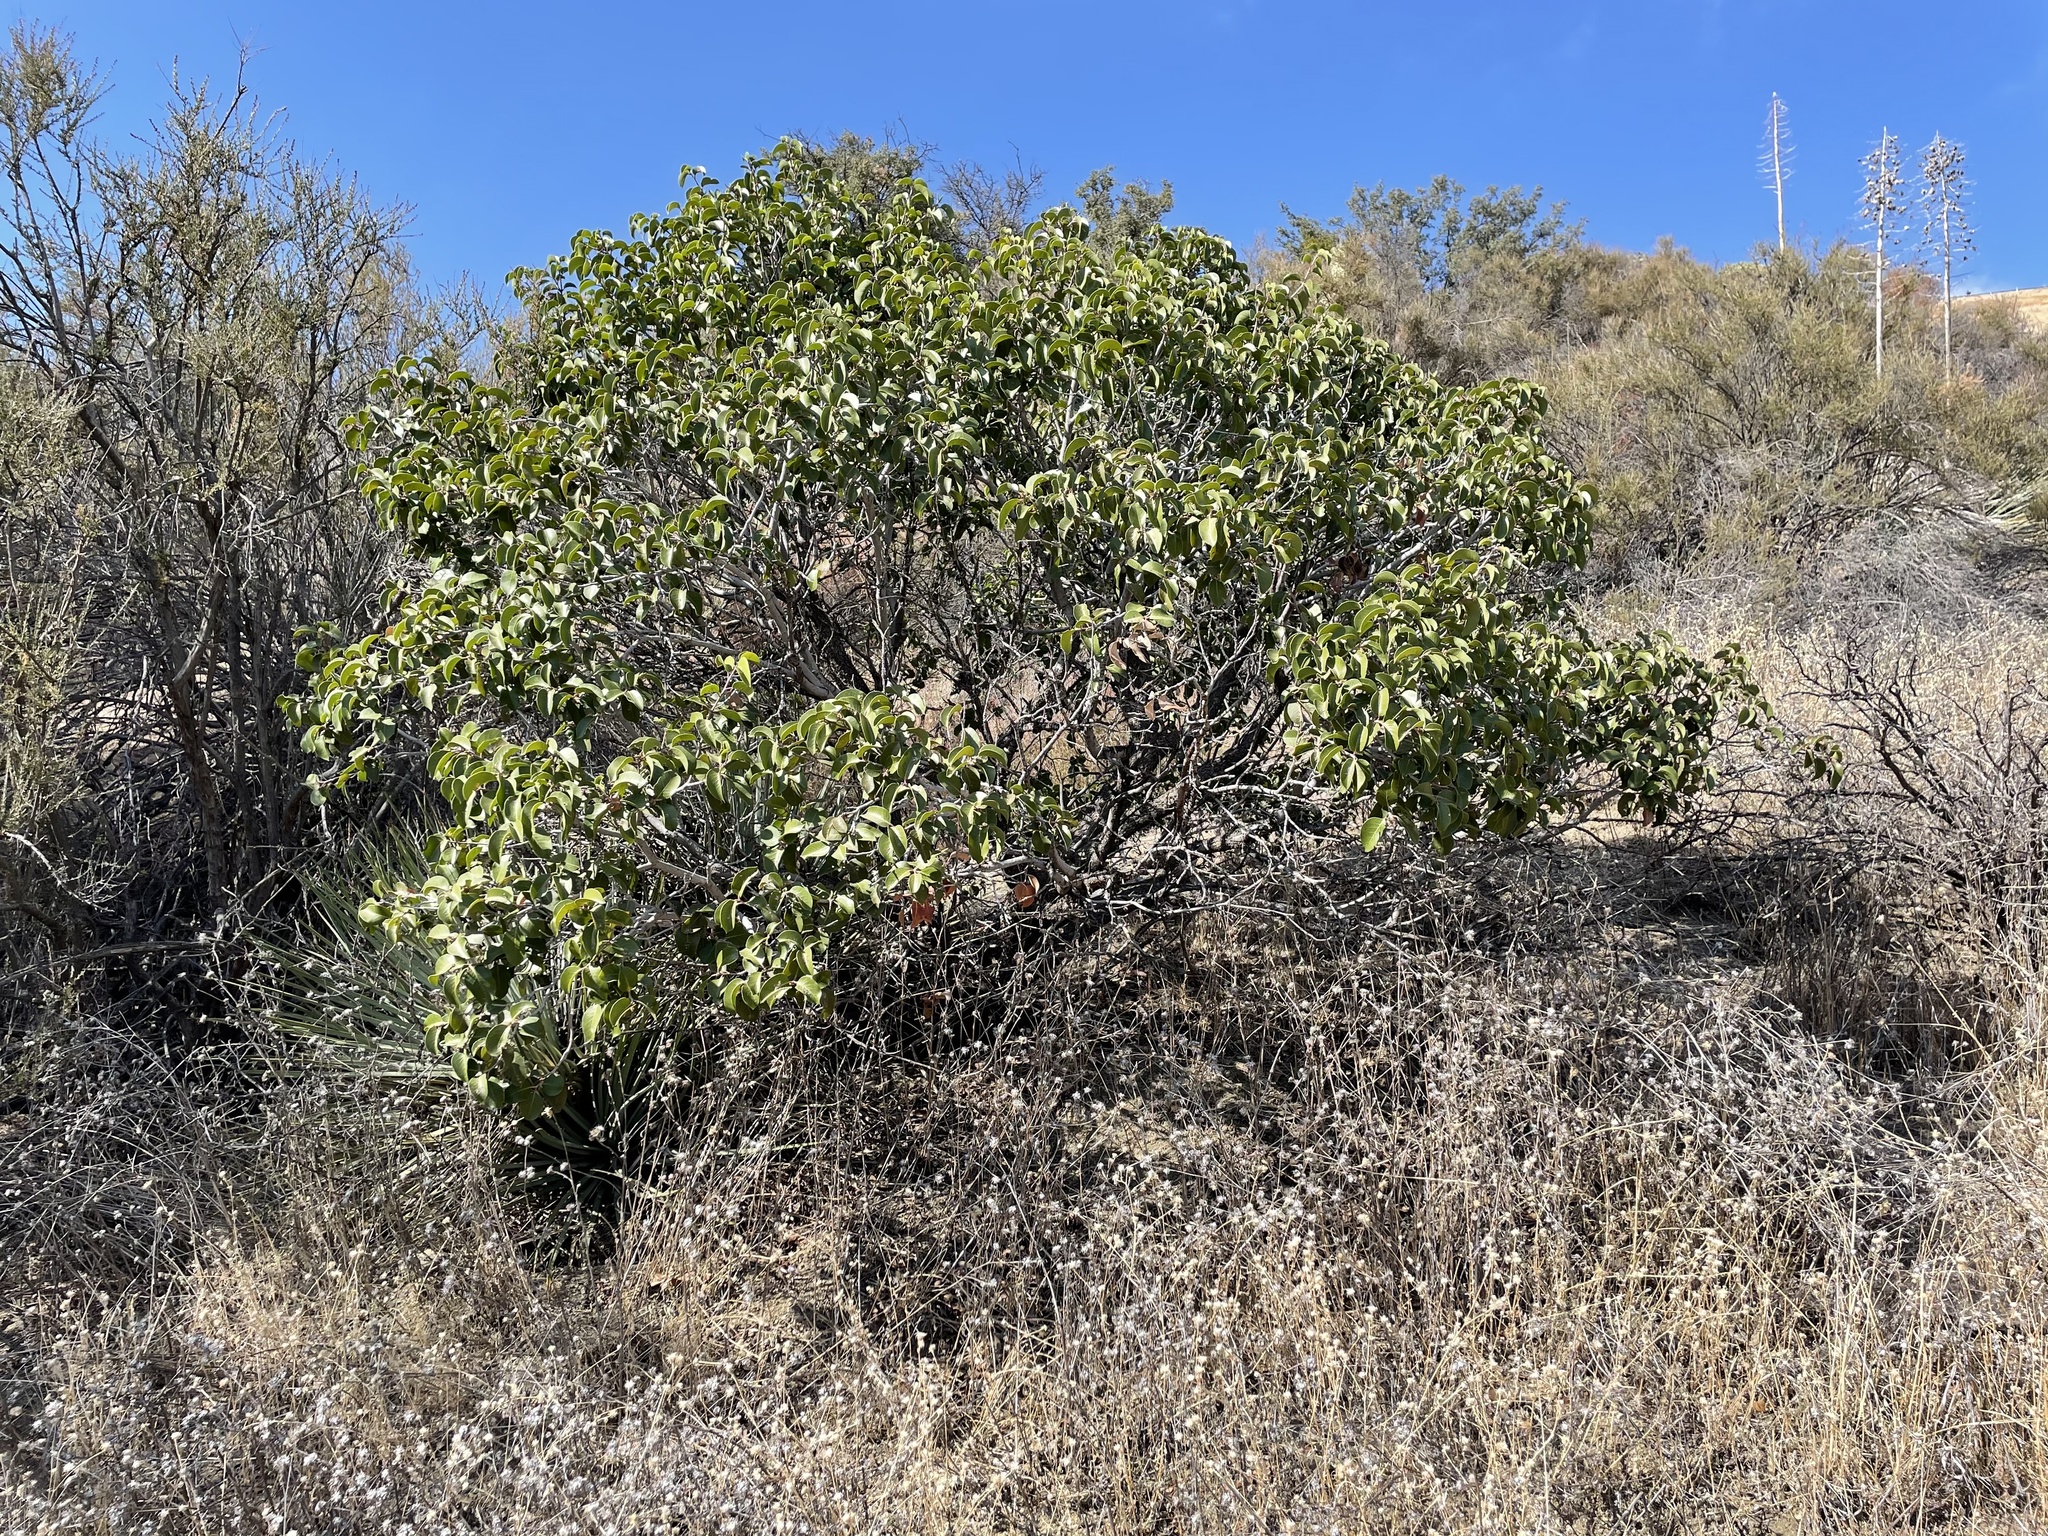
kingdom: Plantae
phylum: Tracheophyta
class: Magnoliopsida
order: Sapindales
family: Anacardiaceae
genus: Rhus
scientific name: Rhus ovata
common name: Sugar sumac
